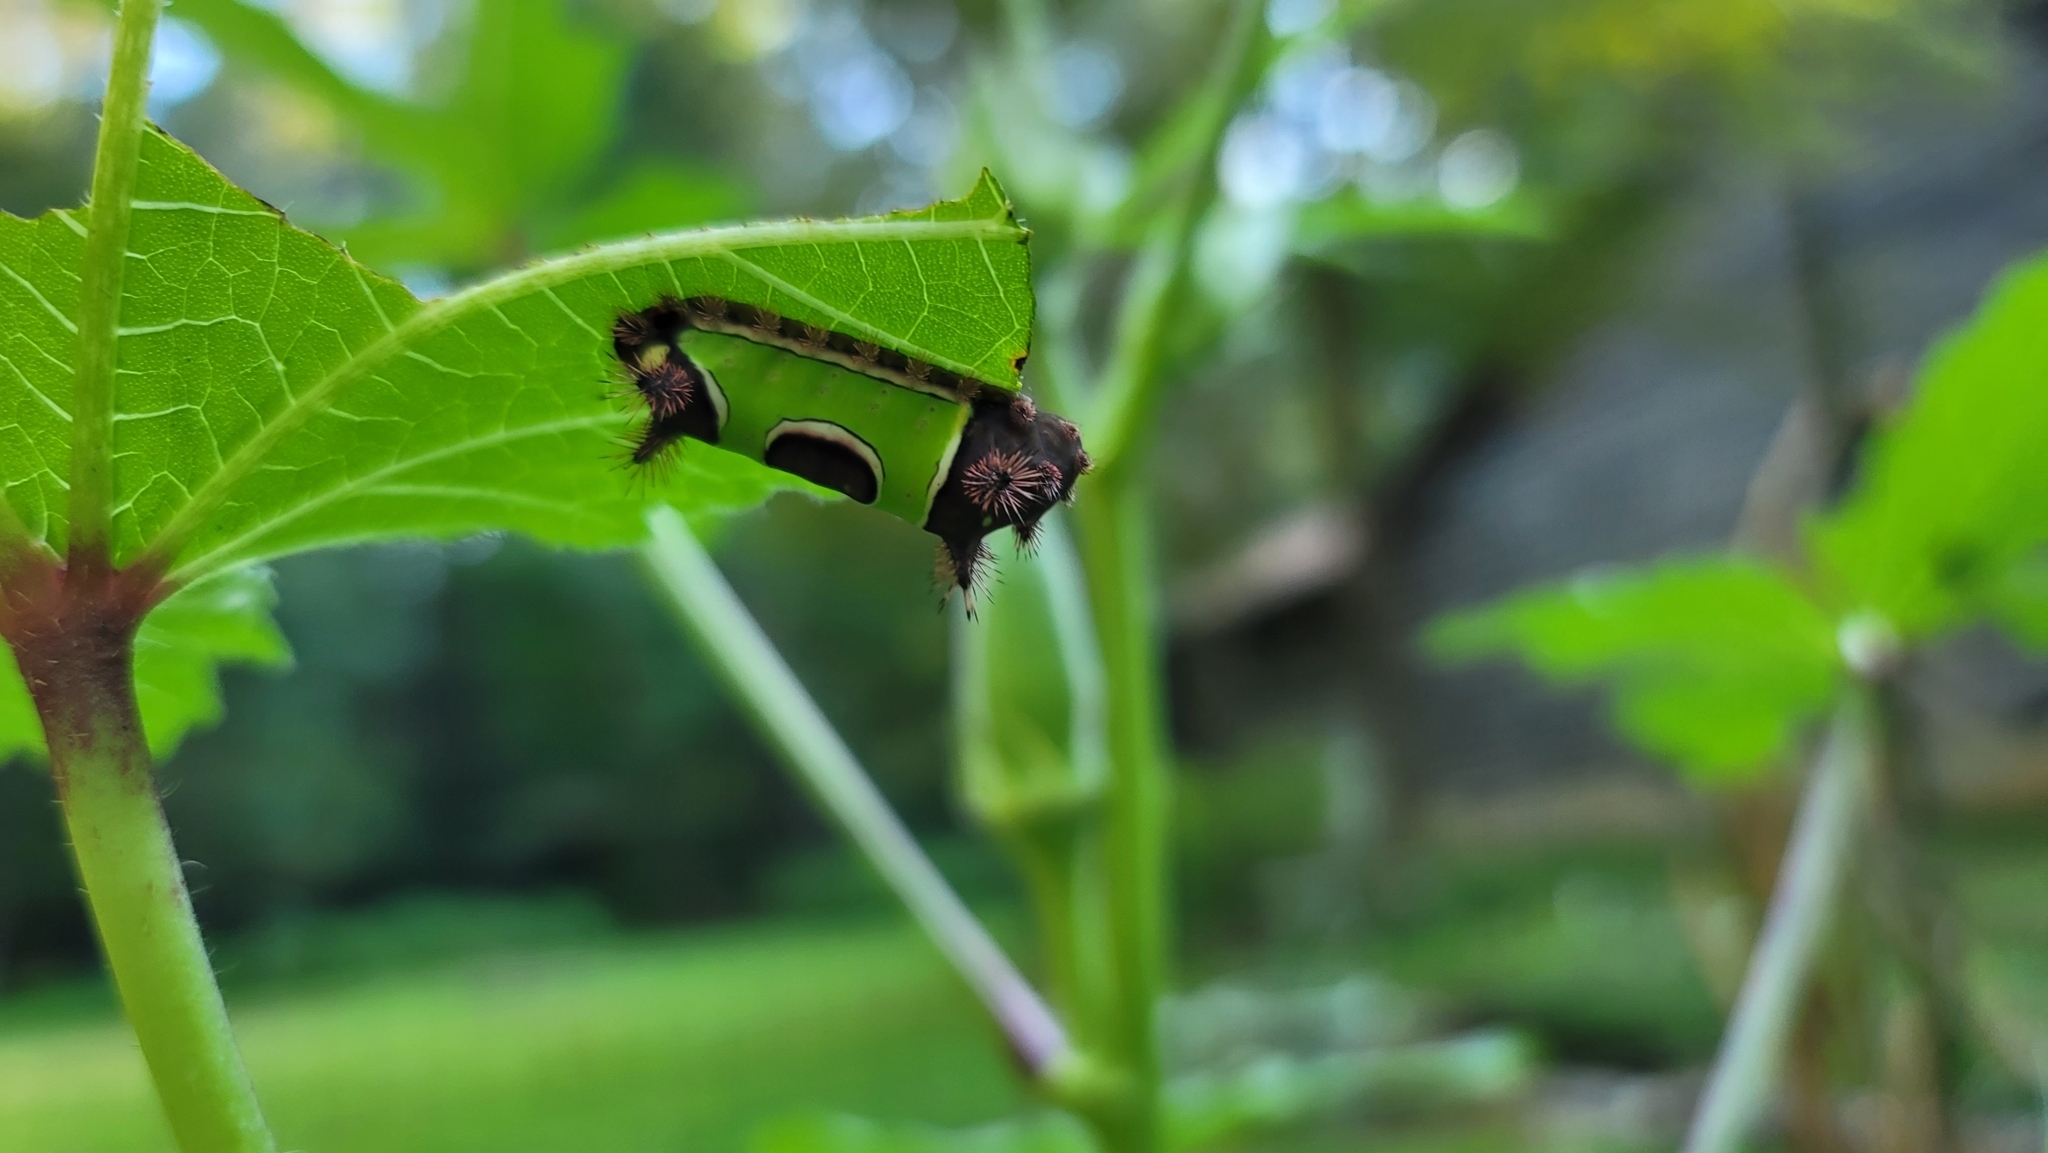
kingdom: Animalia
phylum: Arthropoda
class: Insecta
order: Lepidoptera
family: Limacodidae
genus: Acharia
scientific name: Acharia stimulea
